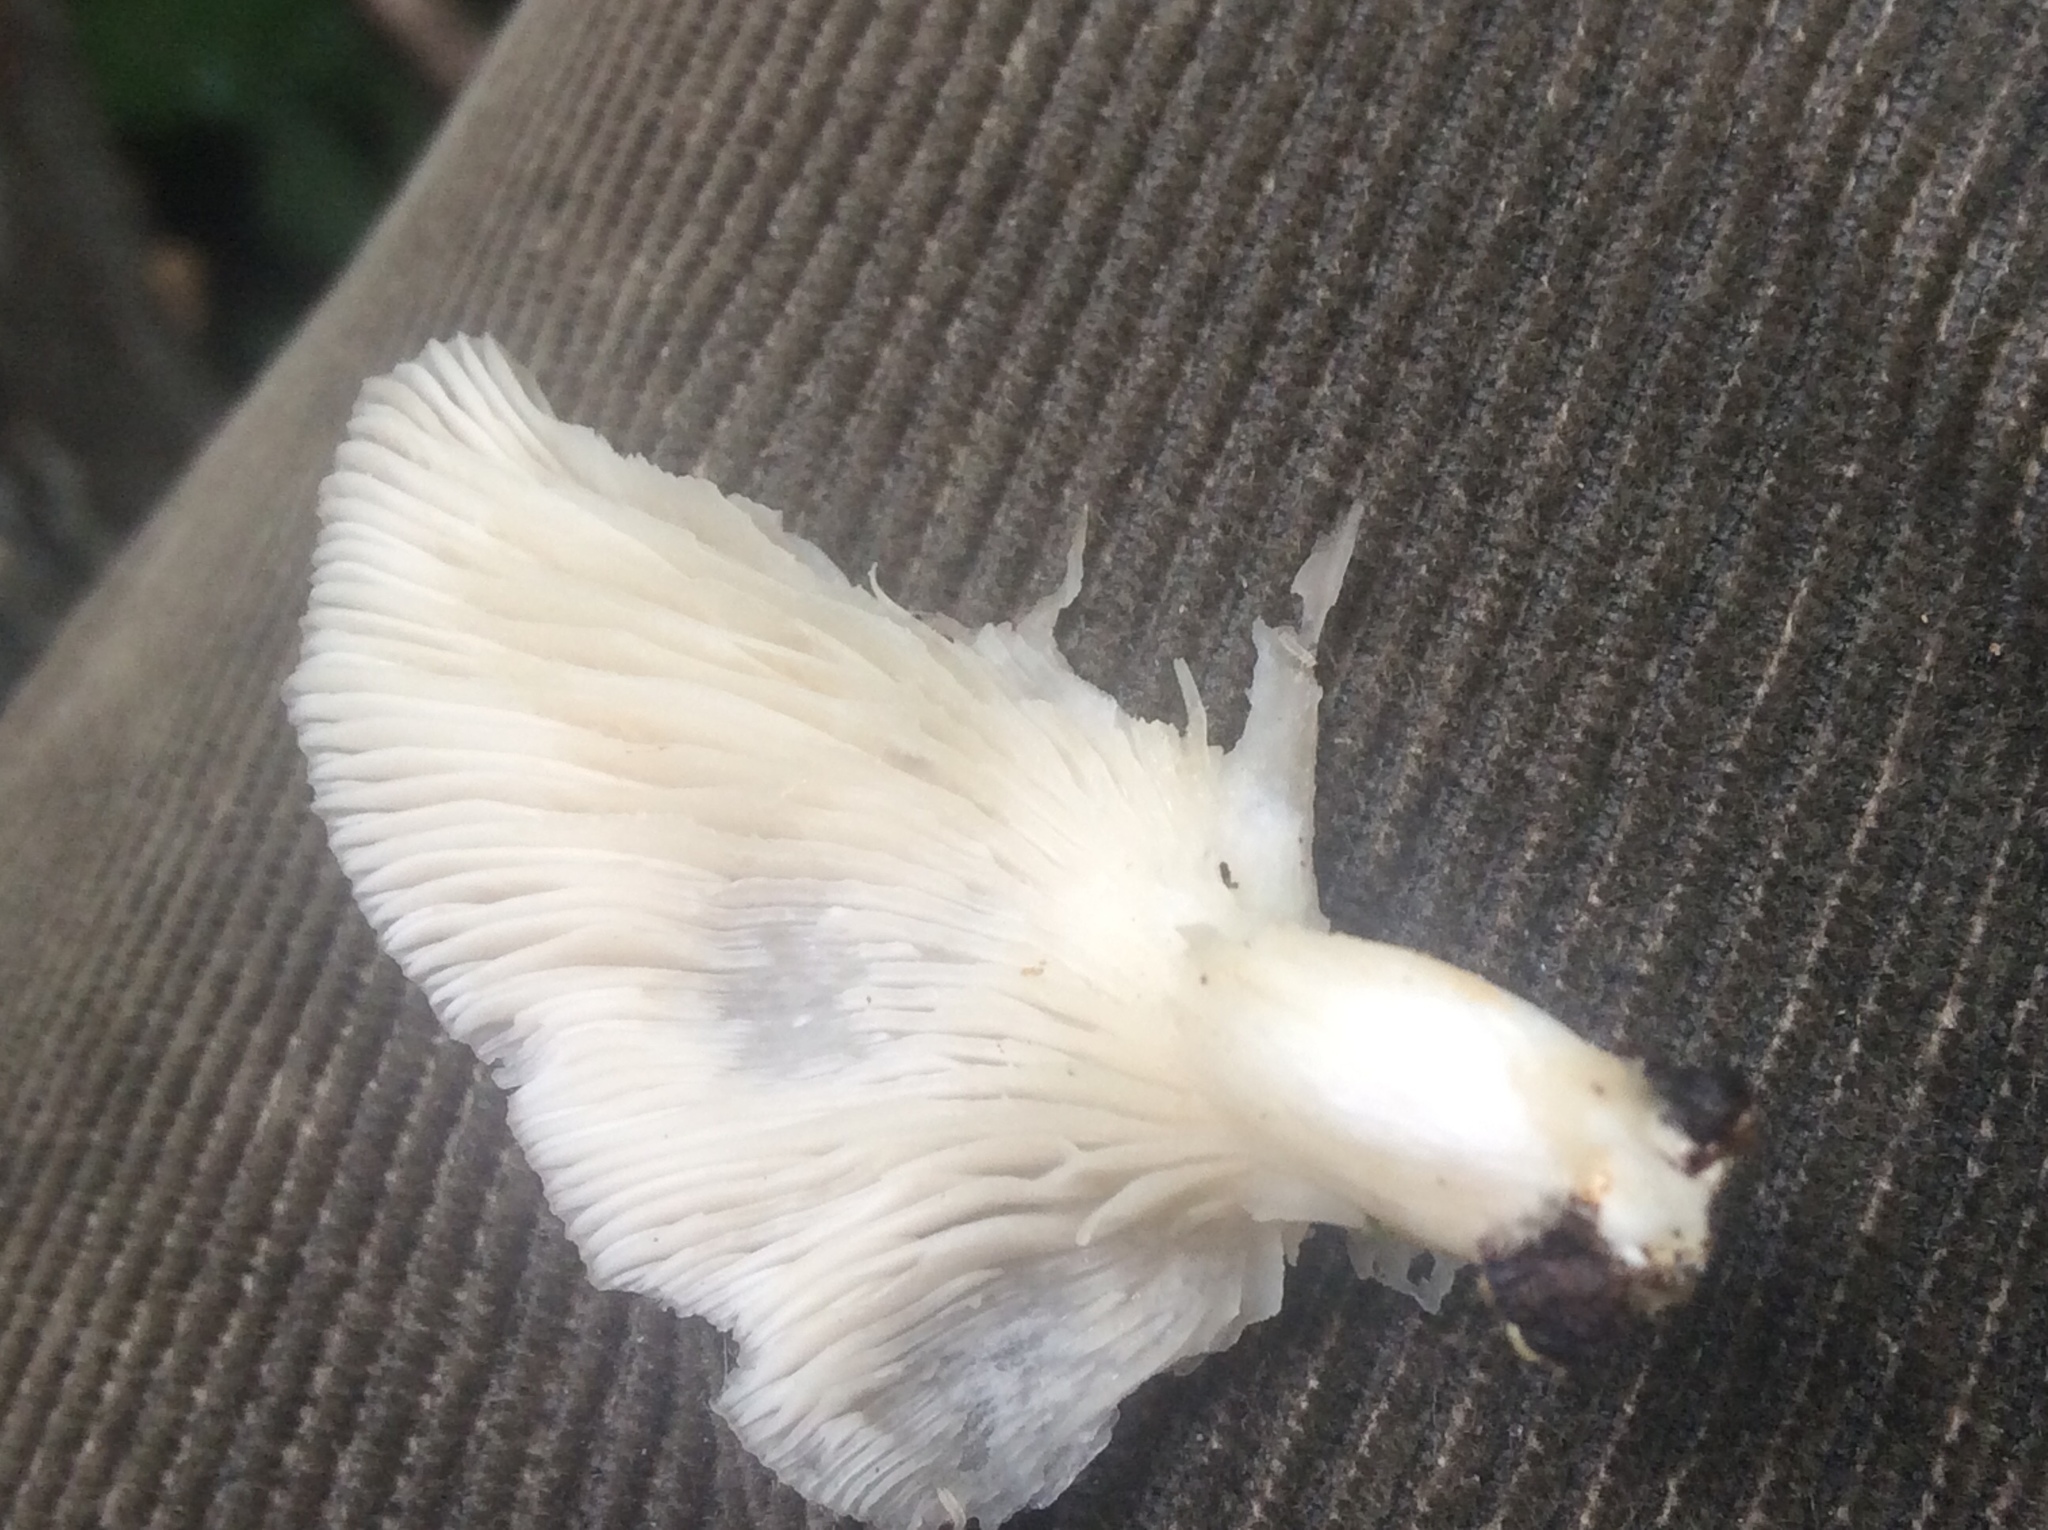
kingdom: Fungi
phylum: Basidiomycota
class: Agaricomycetes
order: Agaricales
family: Pleurotaceae
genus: Pleurotus
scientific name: Pleurotus pulmonarius
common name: Pale oyster
